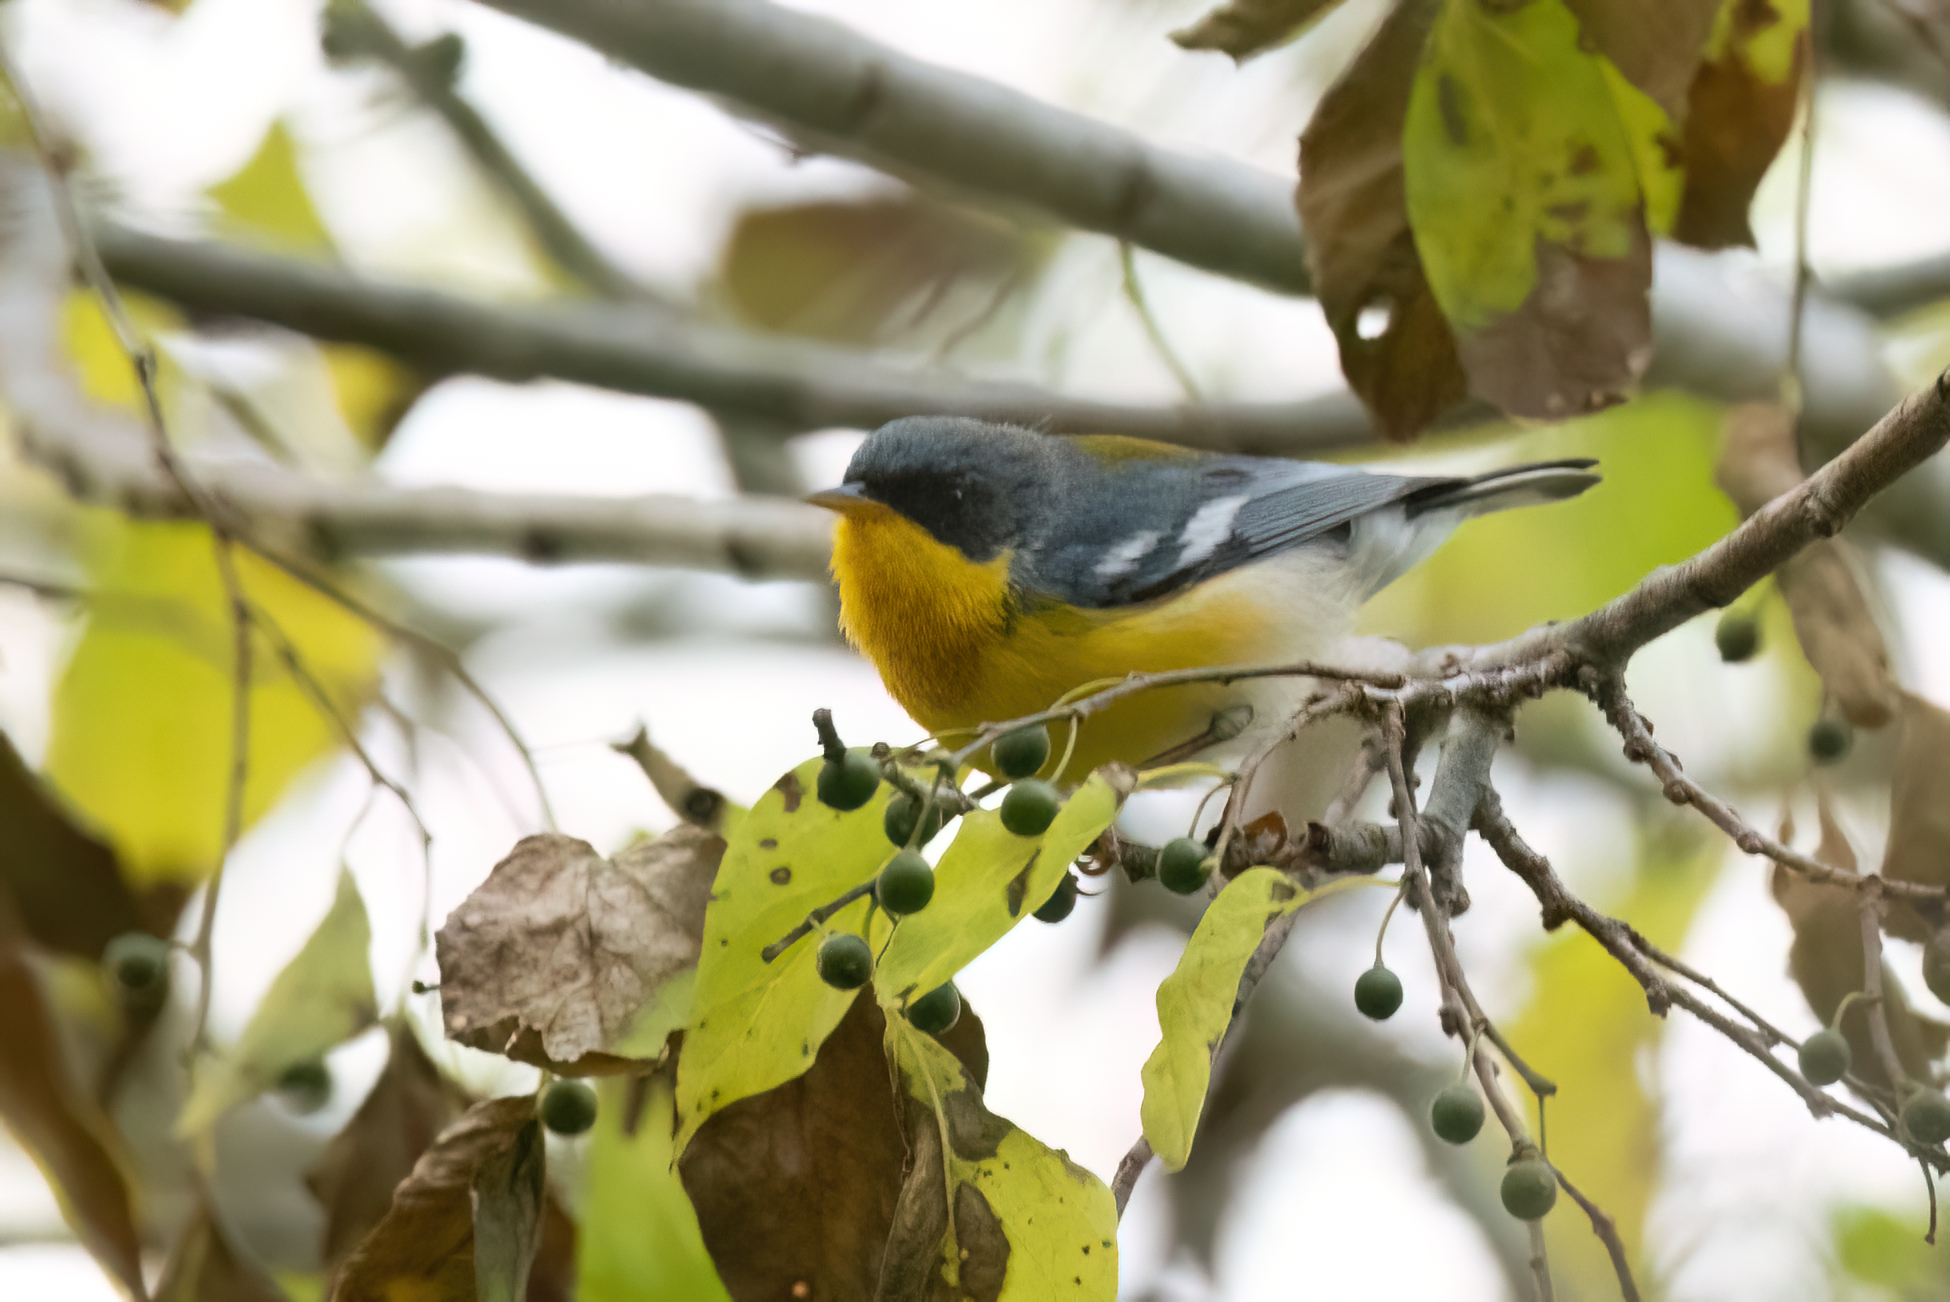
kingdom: Animalia
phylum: Chordata
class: Aves
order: Passeriformes
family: Parulidae
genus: Setophaga
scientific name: Setophaga pitiayumi
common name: Tropical parula
